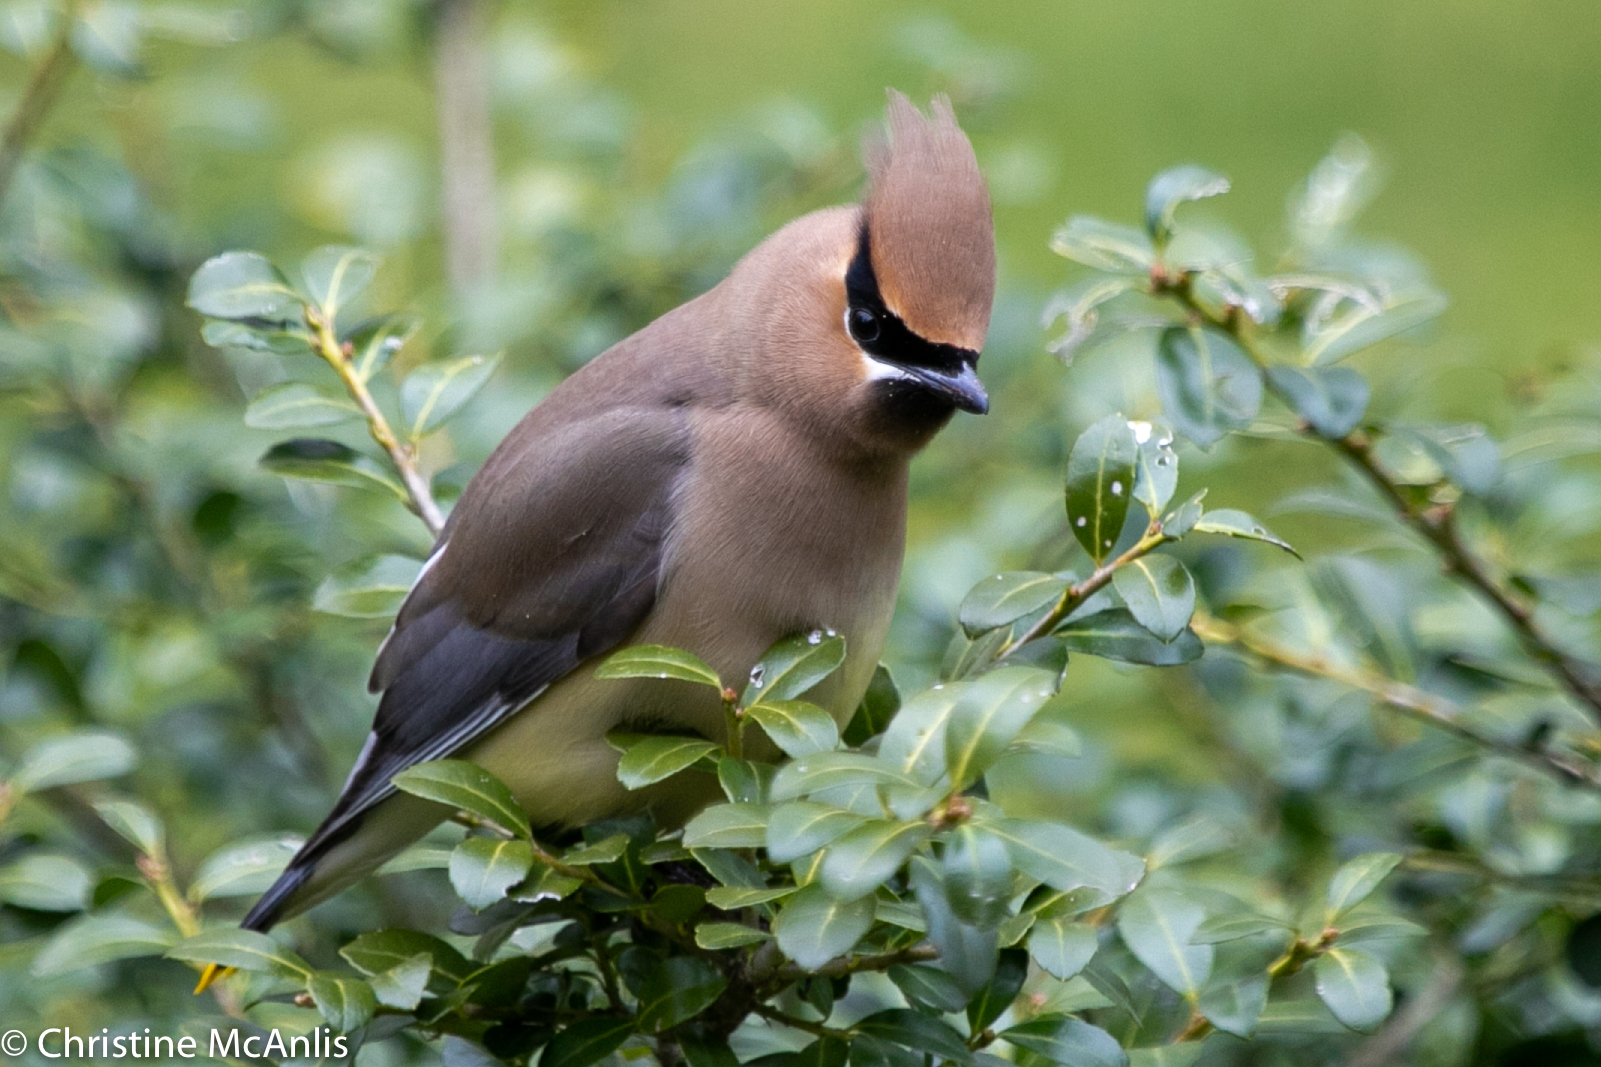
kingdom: Animalia
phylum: Chordata
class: Aves
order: Passeriformes
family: Bombycillidae
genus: Bombycilla
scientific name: Bombycilla cedrorum
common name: Cedar waxwing
